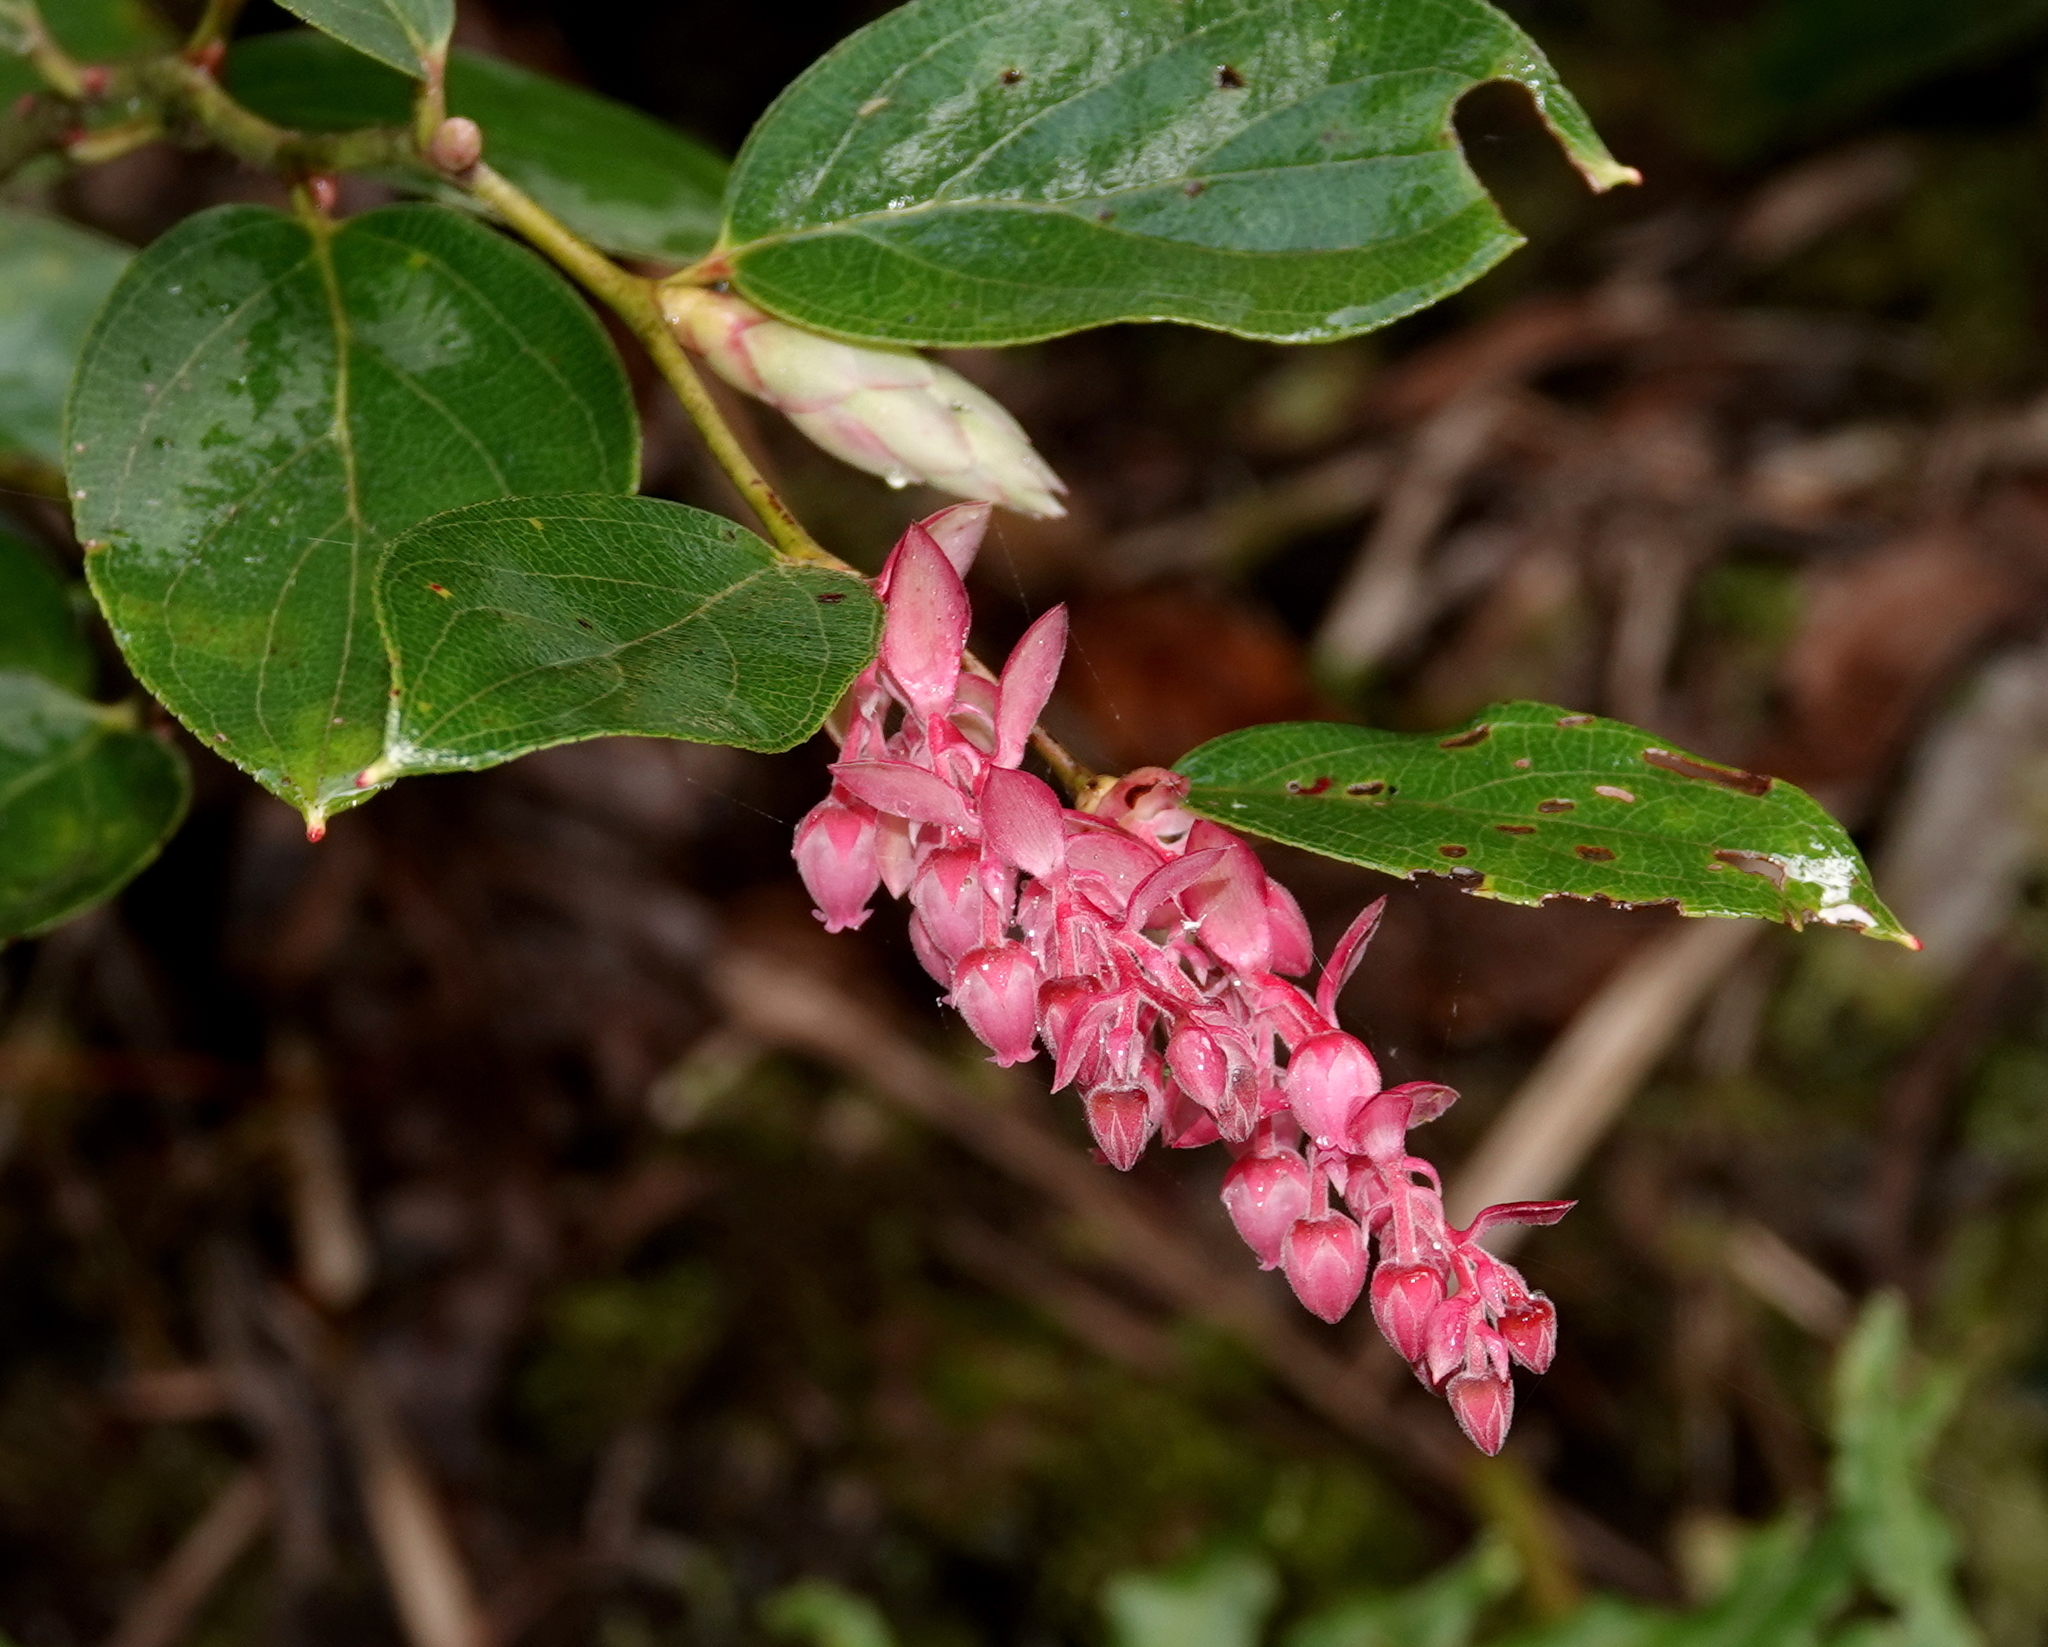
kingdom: Plantae
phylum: Tracheophyta
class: Magnoliopsida
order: Ericales
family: Ericaceae
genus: Gaultheria
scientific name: Gaultheria erecta
